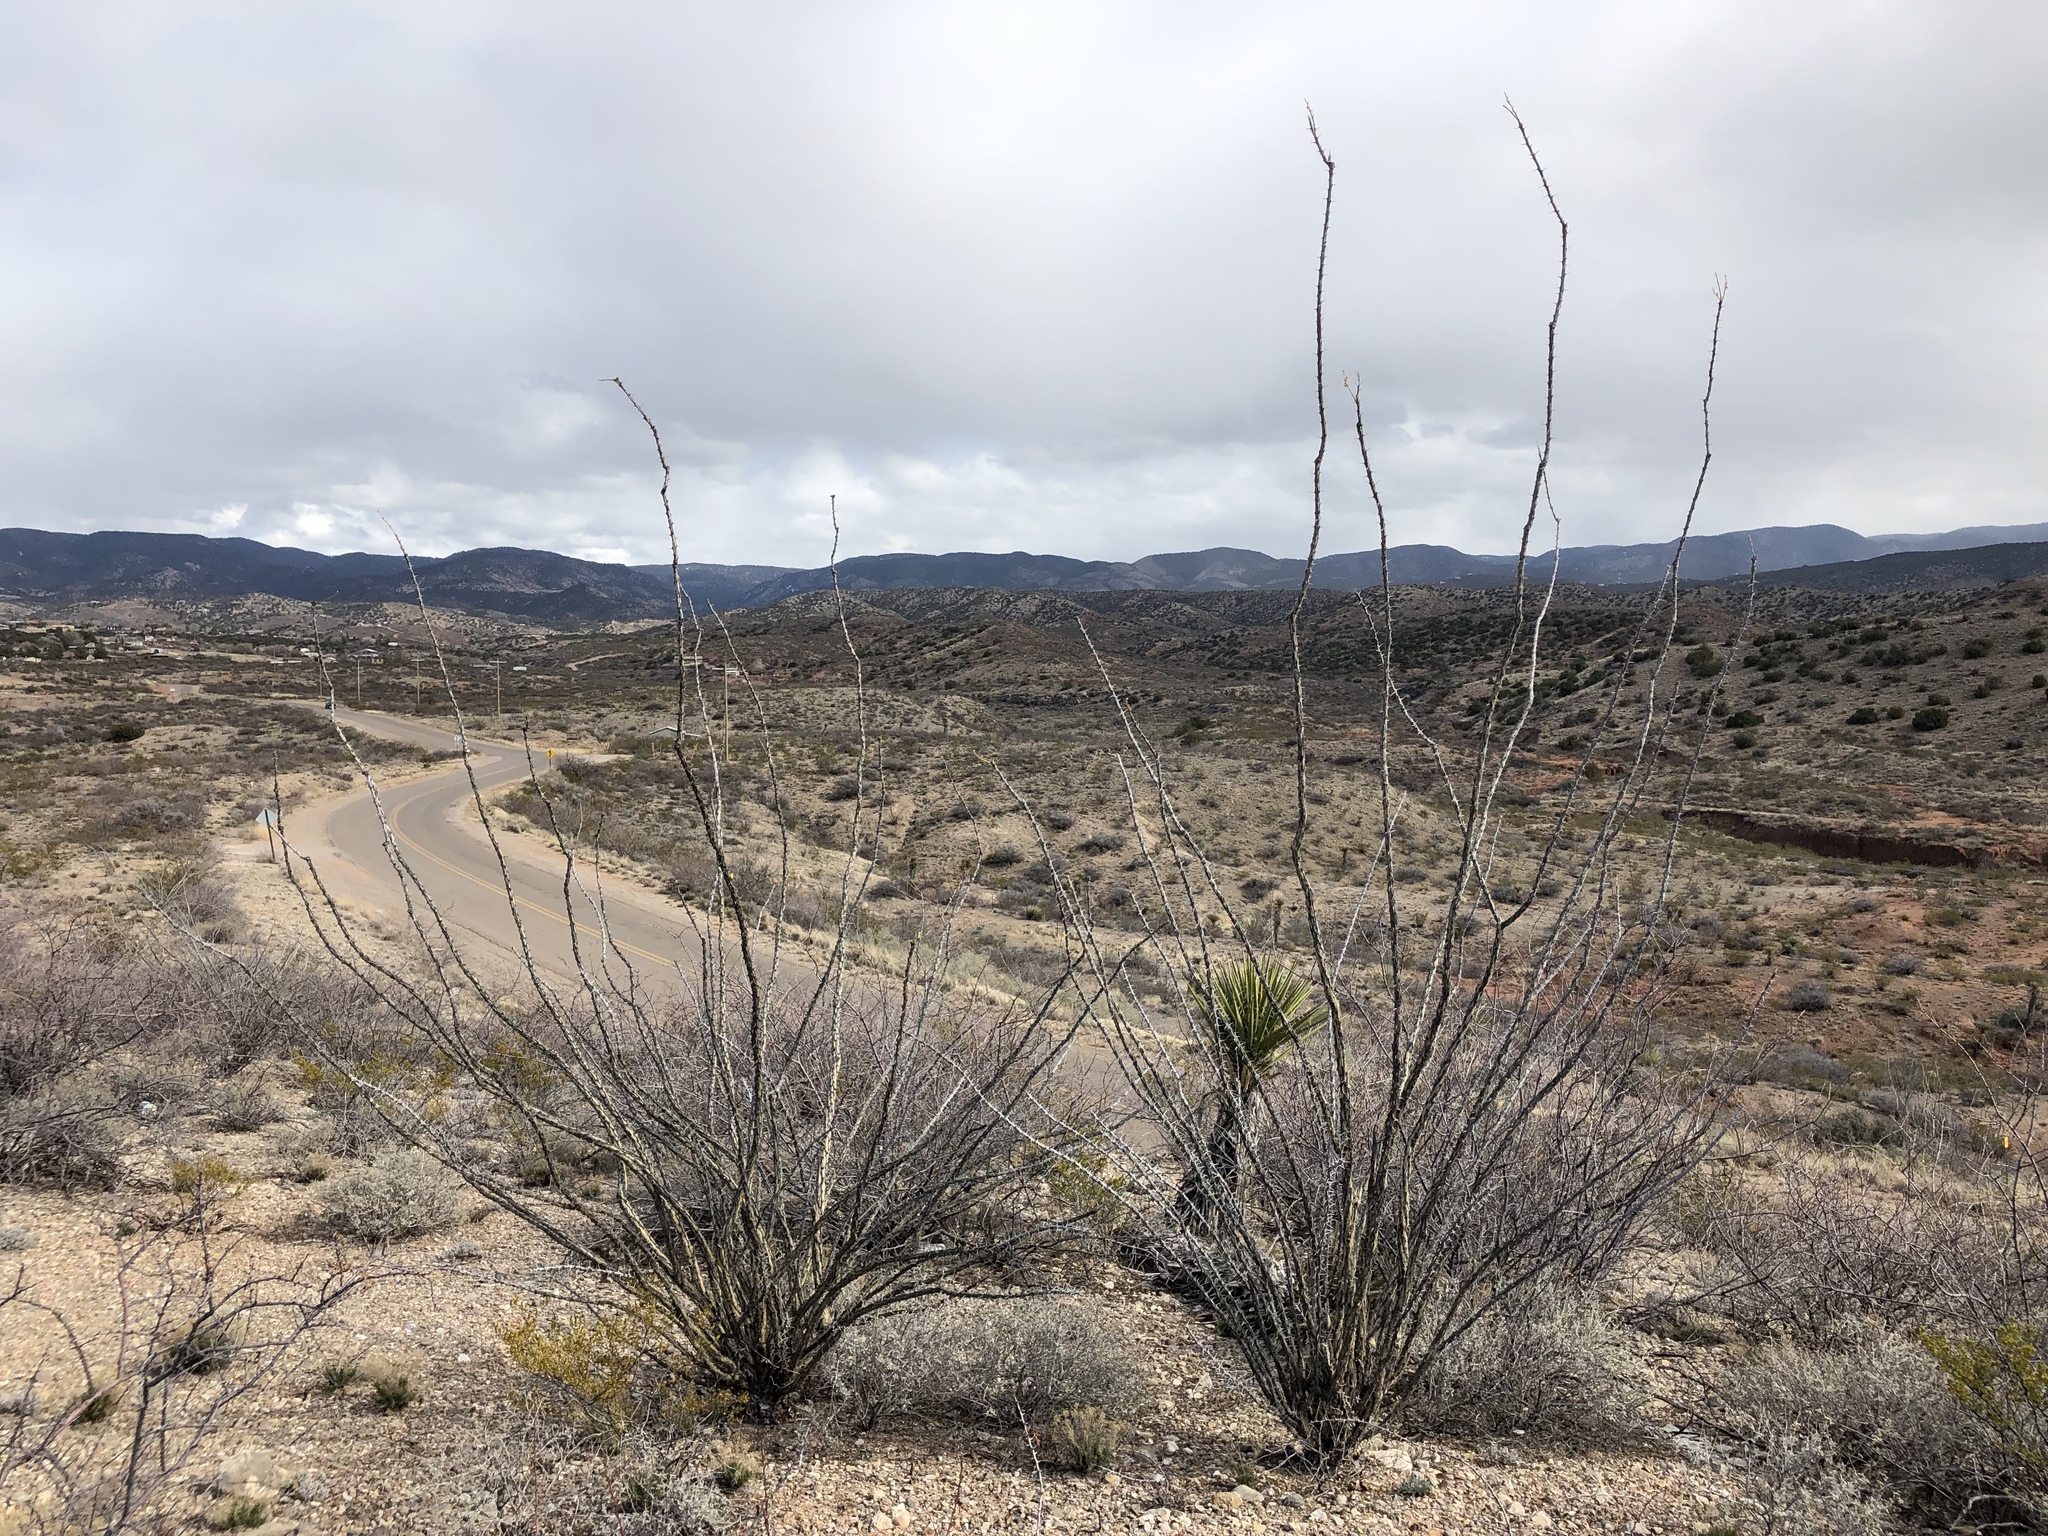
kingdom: Plantae
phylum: Tracheophyta
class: Magnoliopsida
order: Ericales
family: Fouquieriaceae
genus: Fouquieria
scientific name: Fouquieria splendens
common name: Vine-cactus
